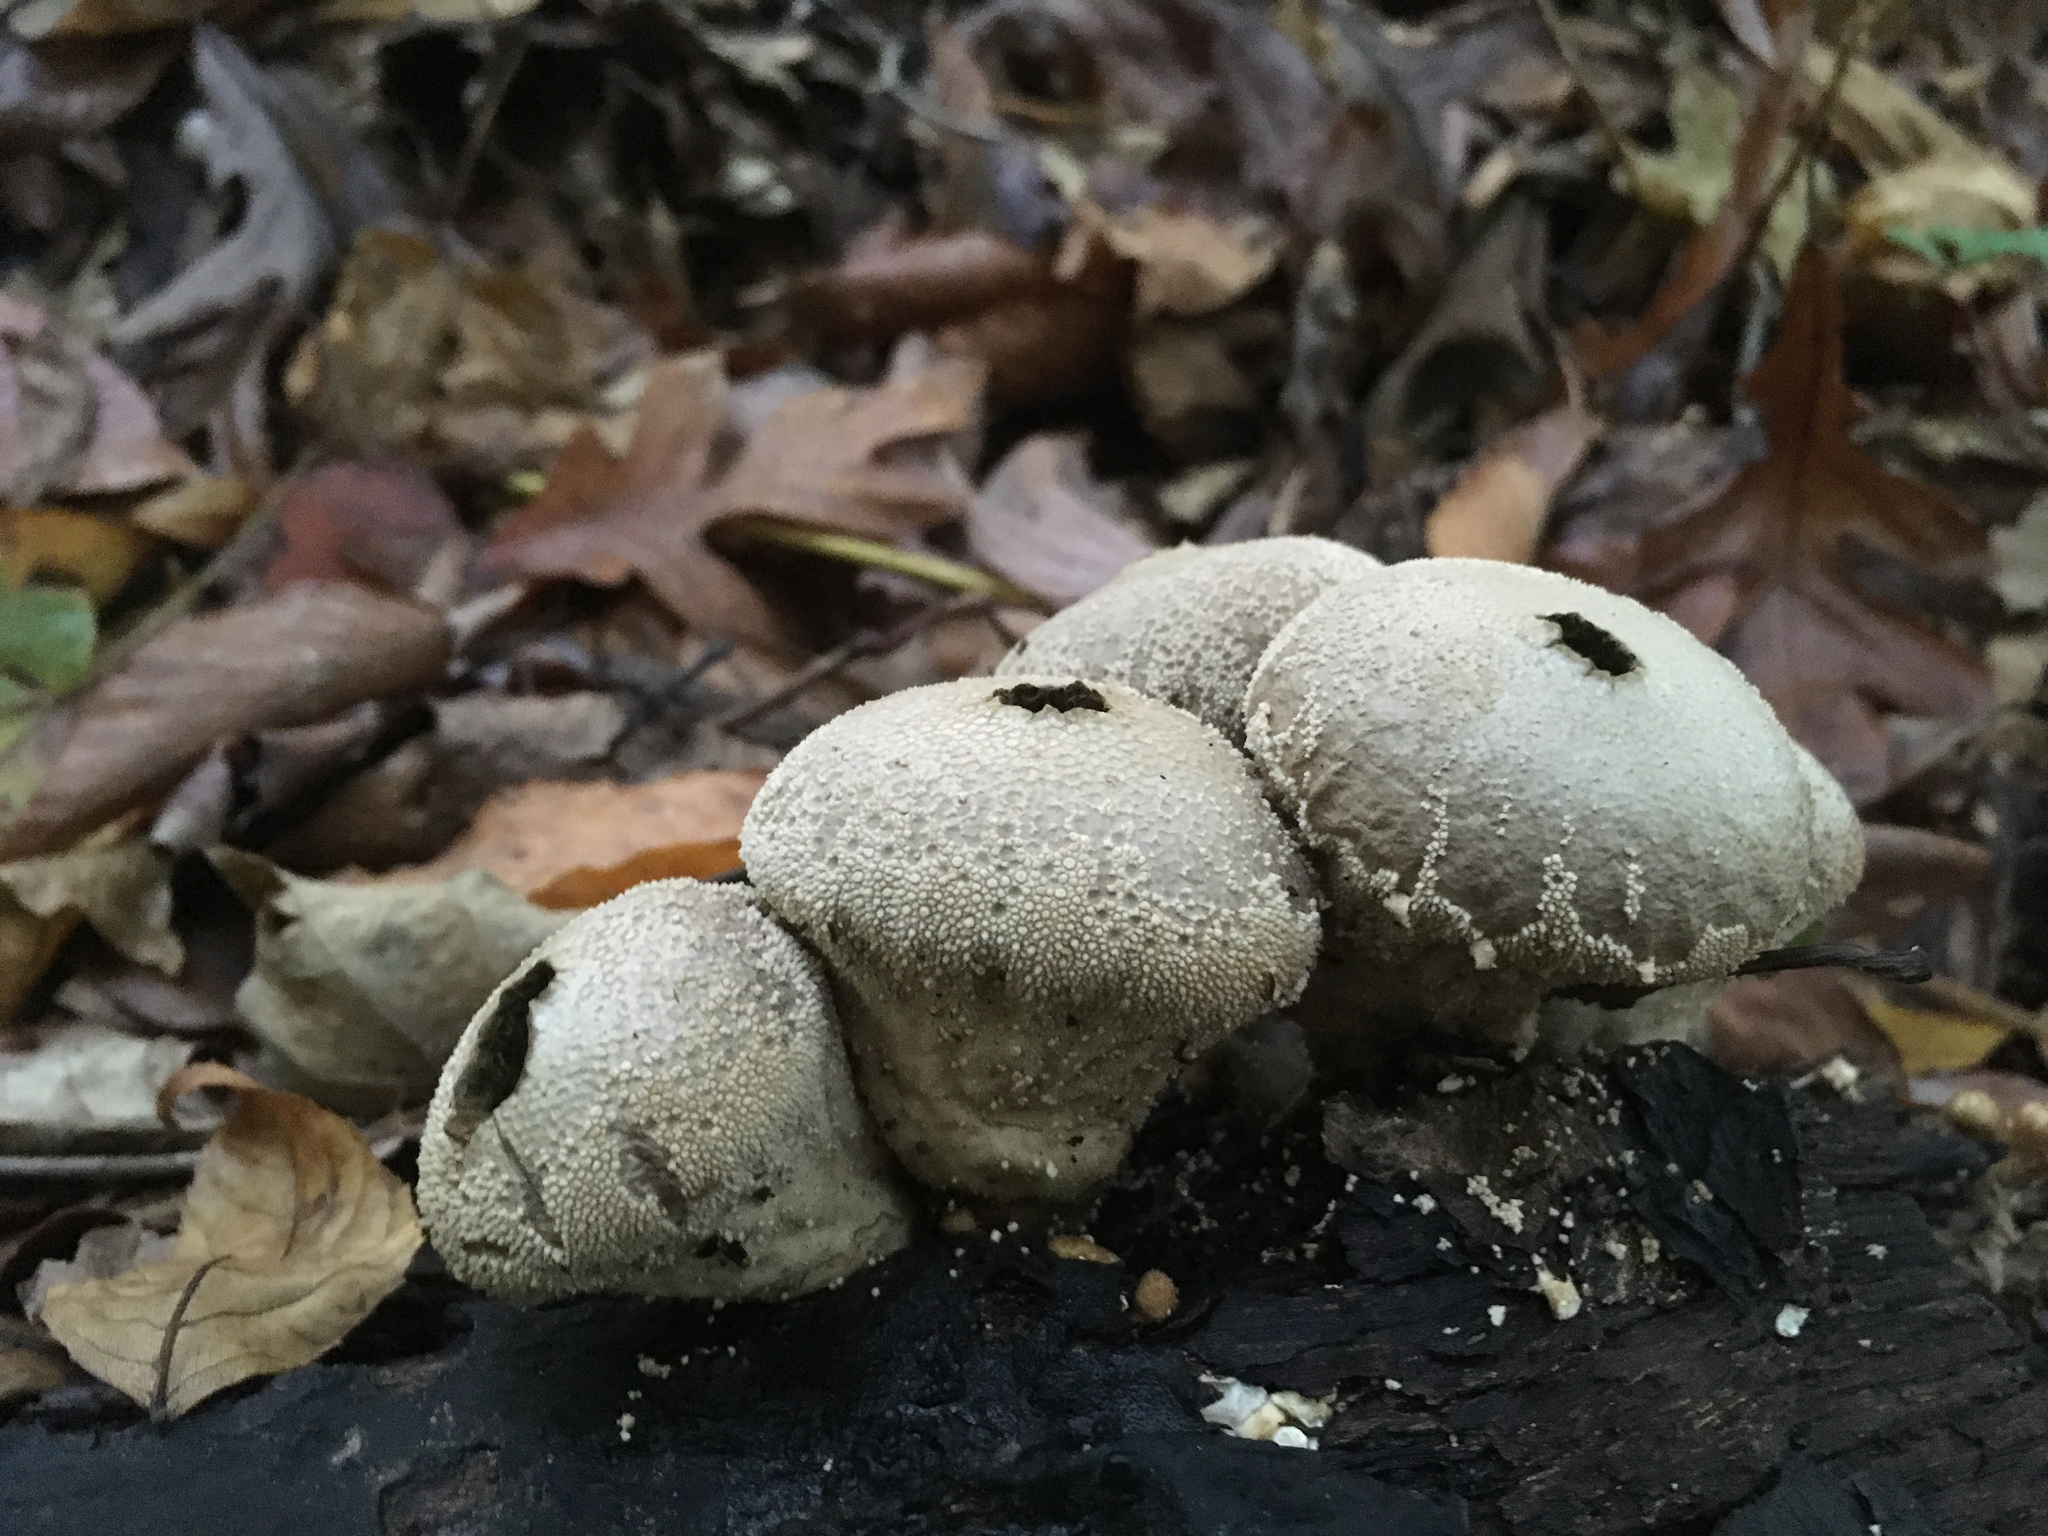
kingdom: Fungi
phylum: Basidiomycota
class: Agaricomycetes
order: Agaricales
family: Lycoperdaceae
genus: Lycoperdon
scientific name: Lycoperdon perlatum
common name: Common puffball
